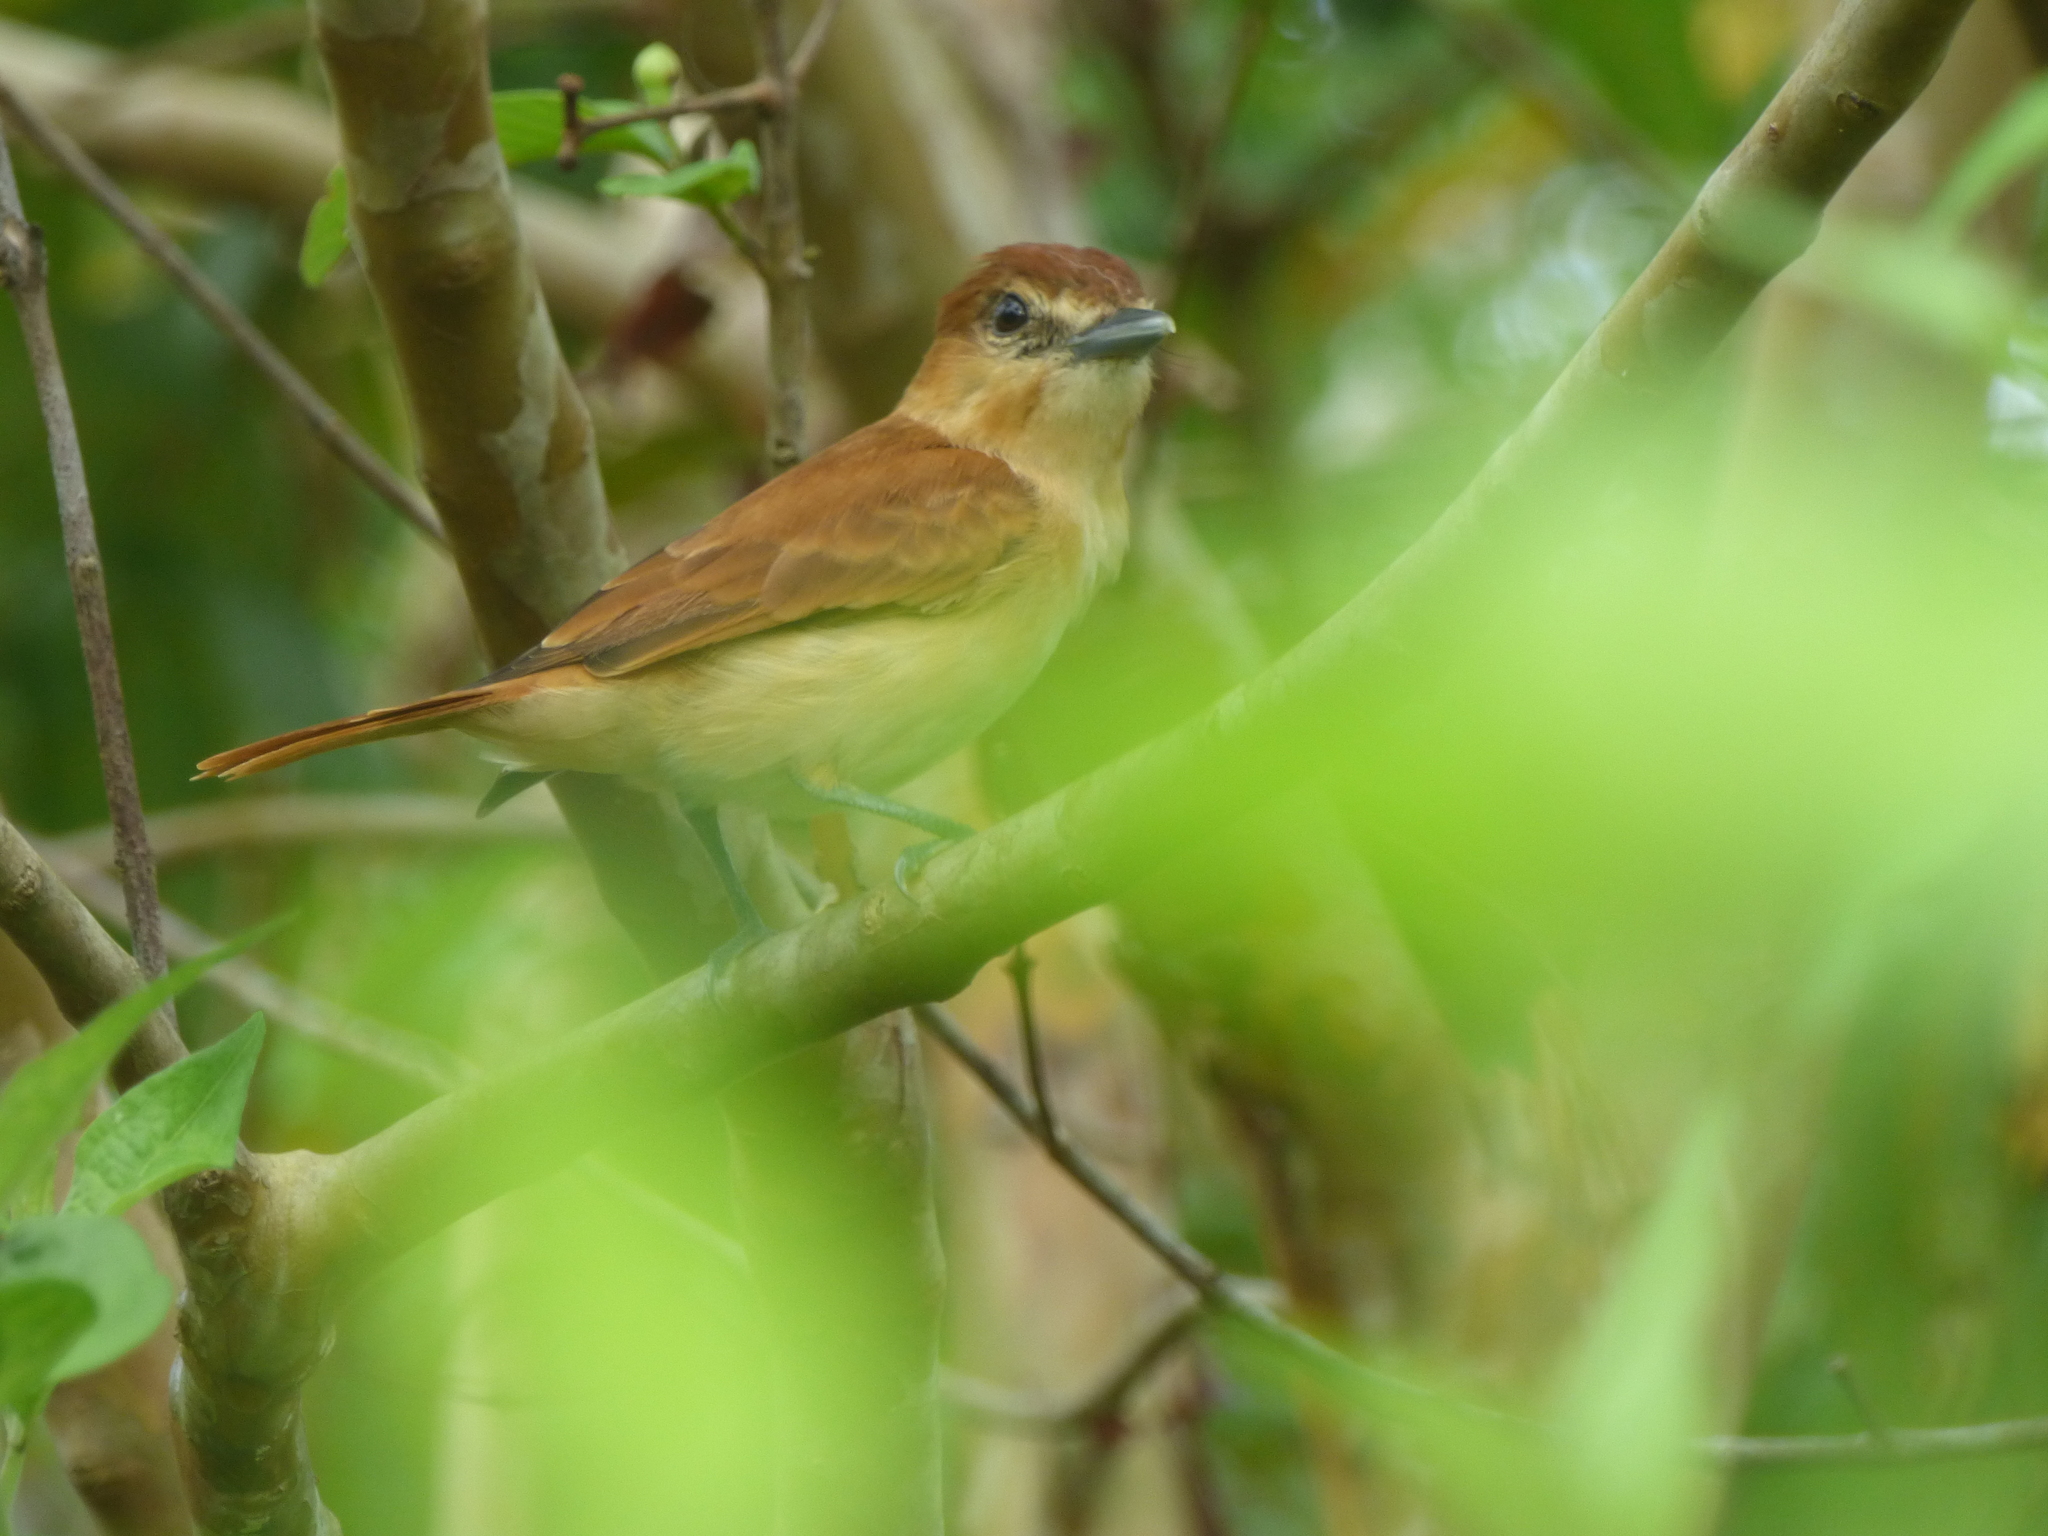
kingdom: Animalia
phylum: Chordata
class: Aves
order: Passeriformes
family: Cotingidae
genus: Pachyramphus
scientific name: Pachyramphus cinnamomeus
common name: Cinnamon becard
